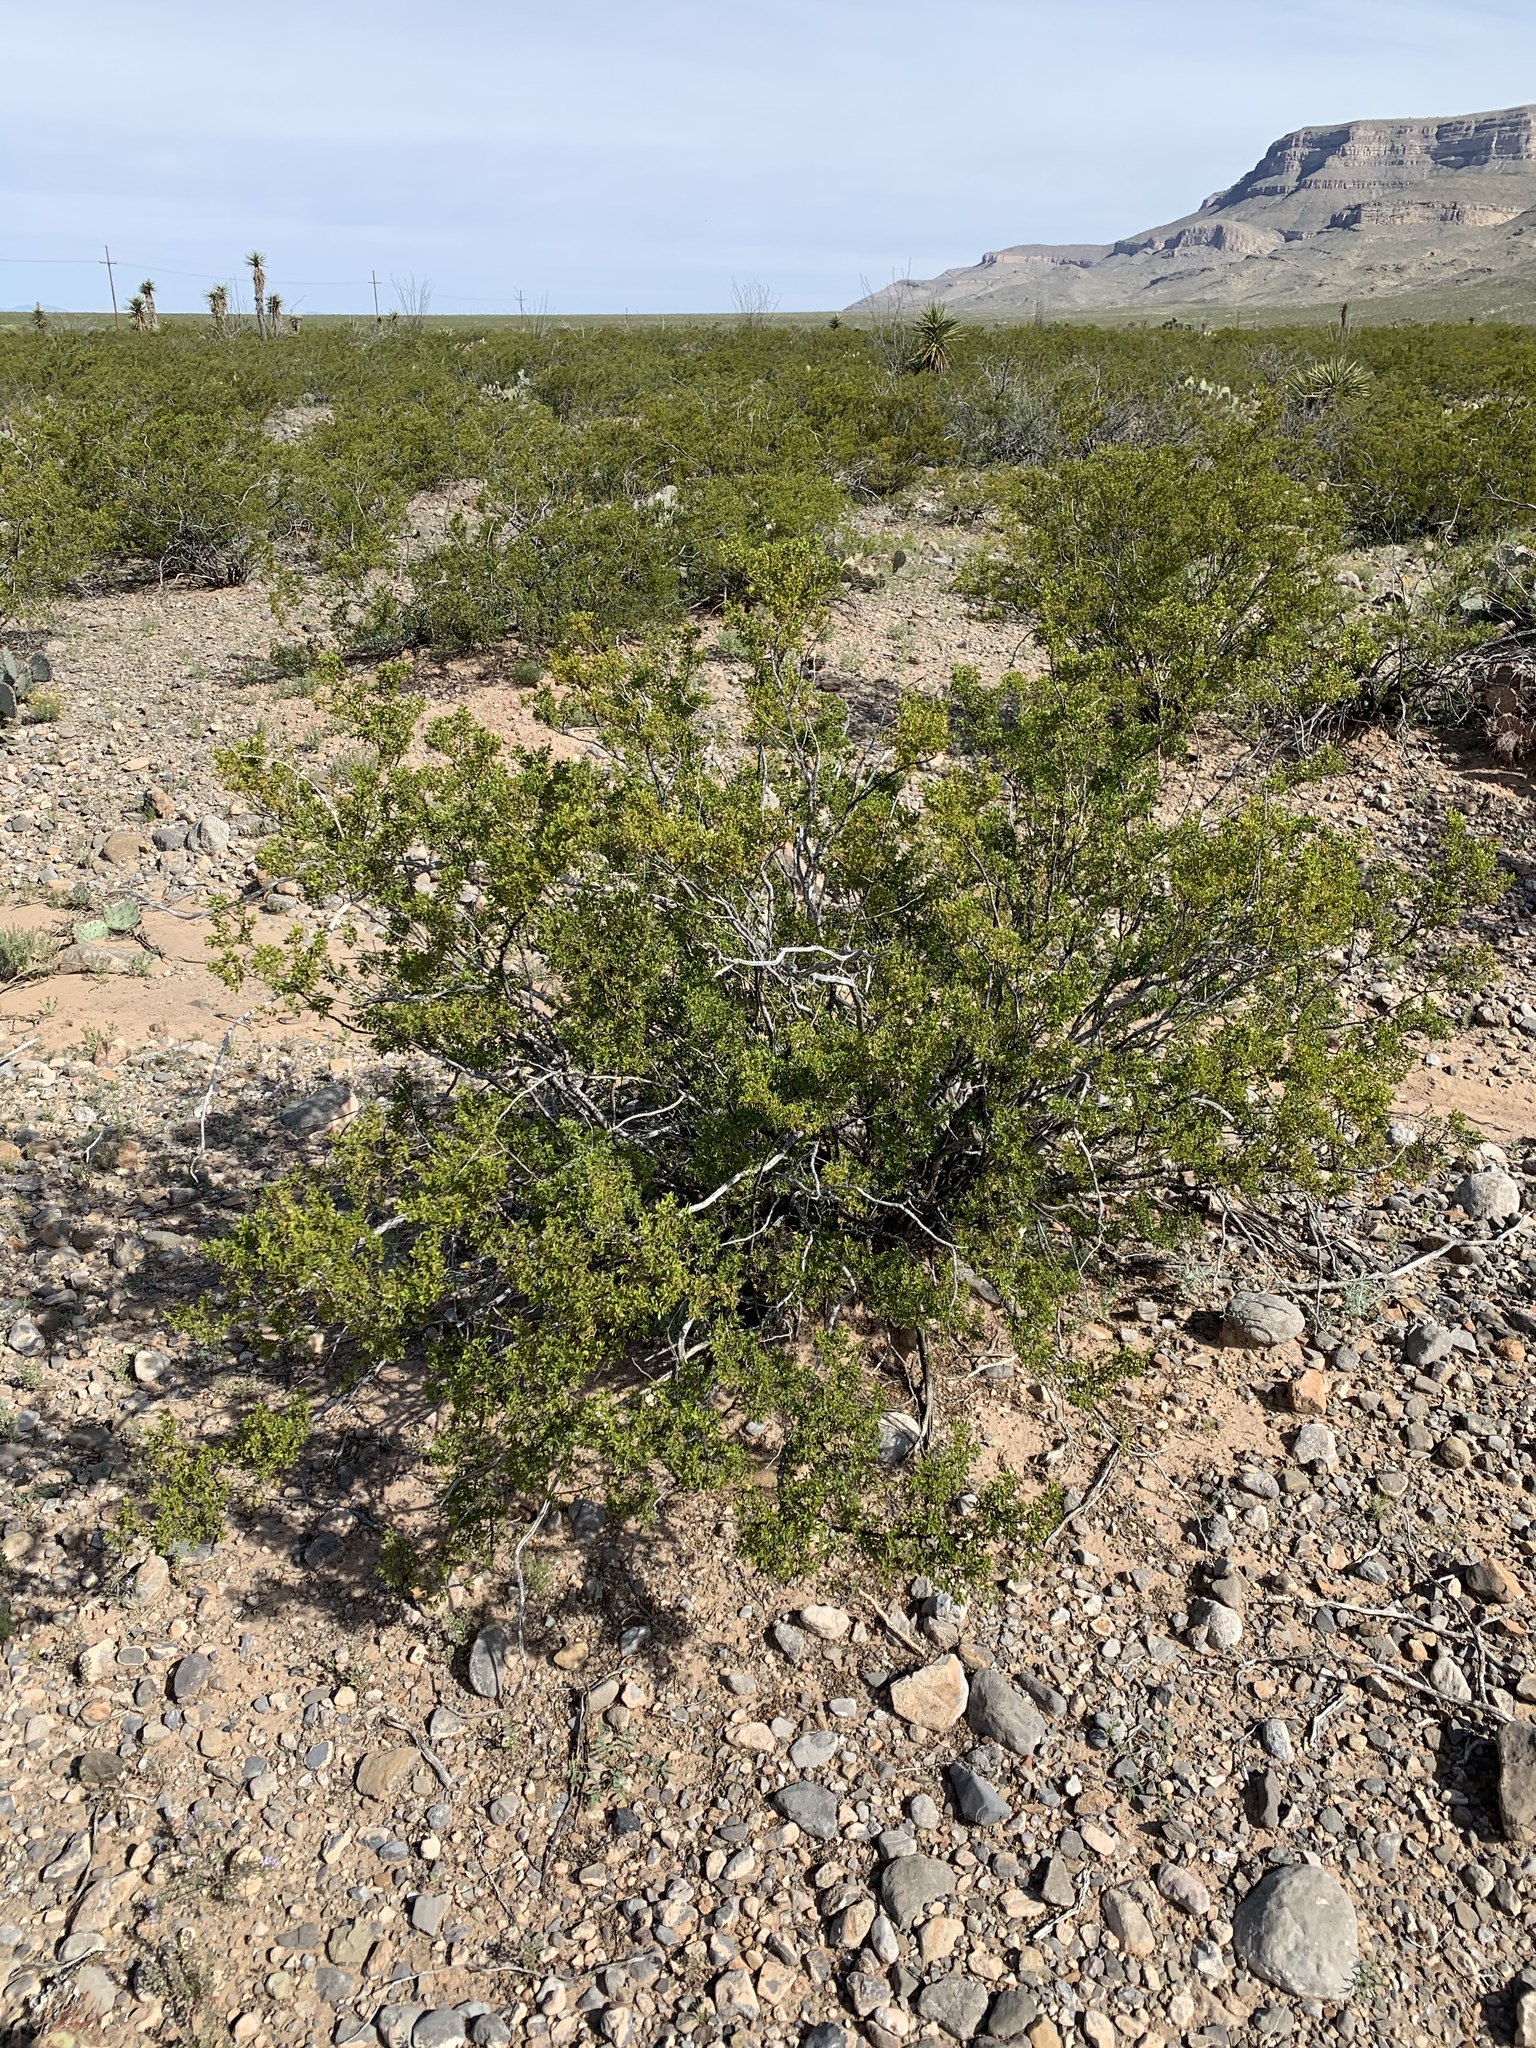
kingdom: Plantae
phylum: Tracheophyta
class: Magnoliopsida
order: Zygophyllales
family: Zygophyllaceae
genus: Larrea
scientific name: Larrea tridentata
